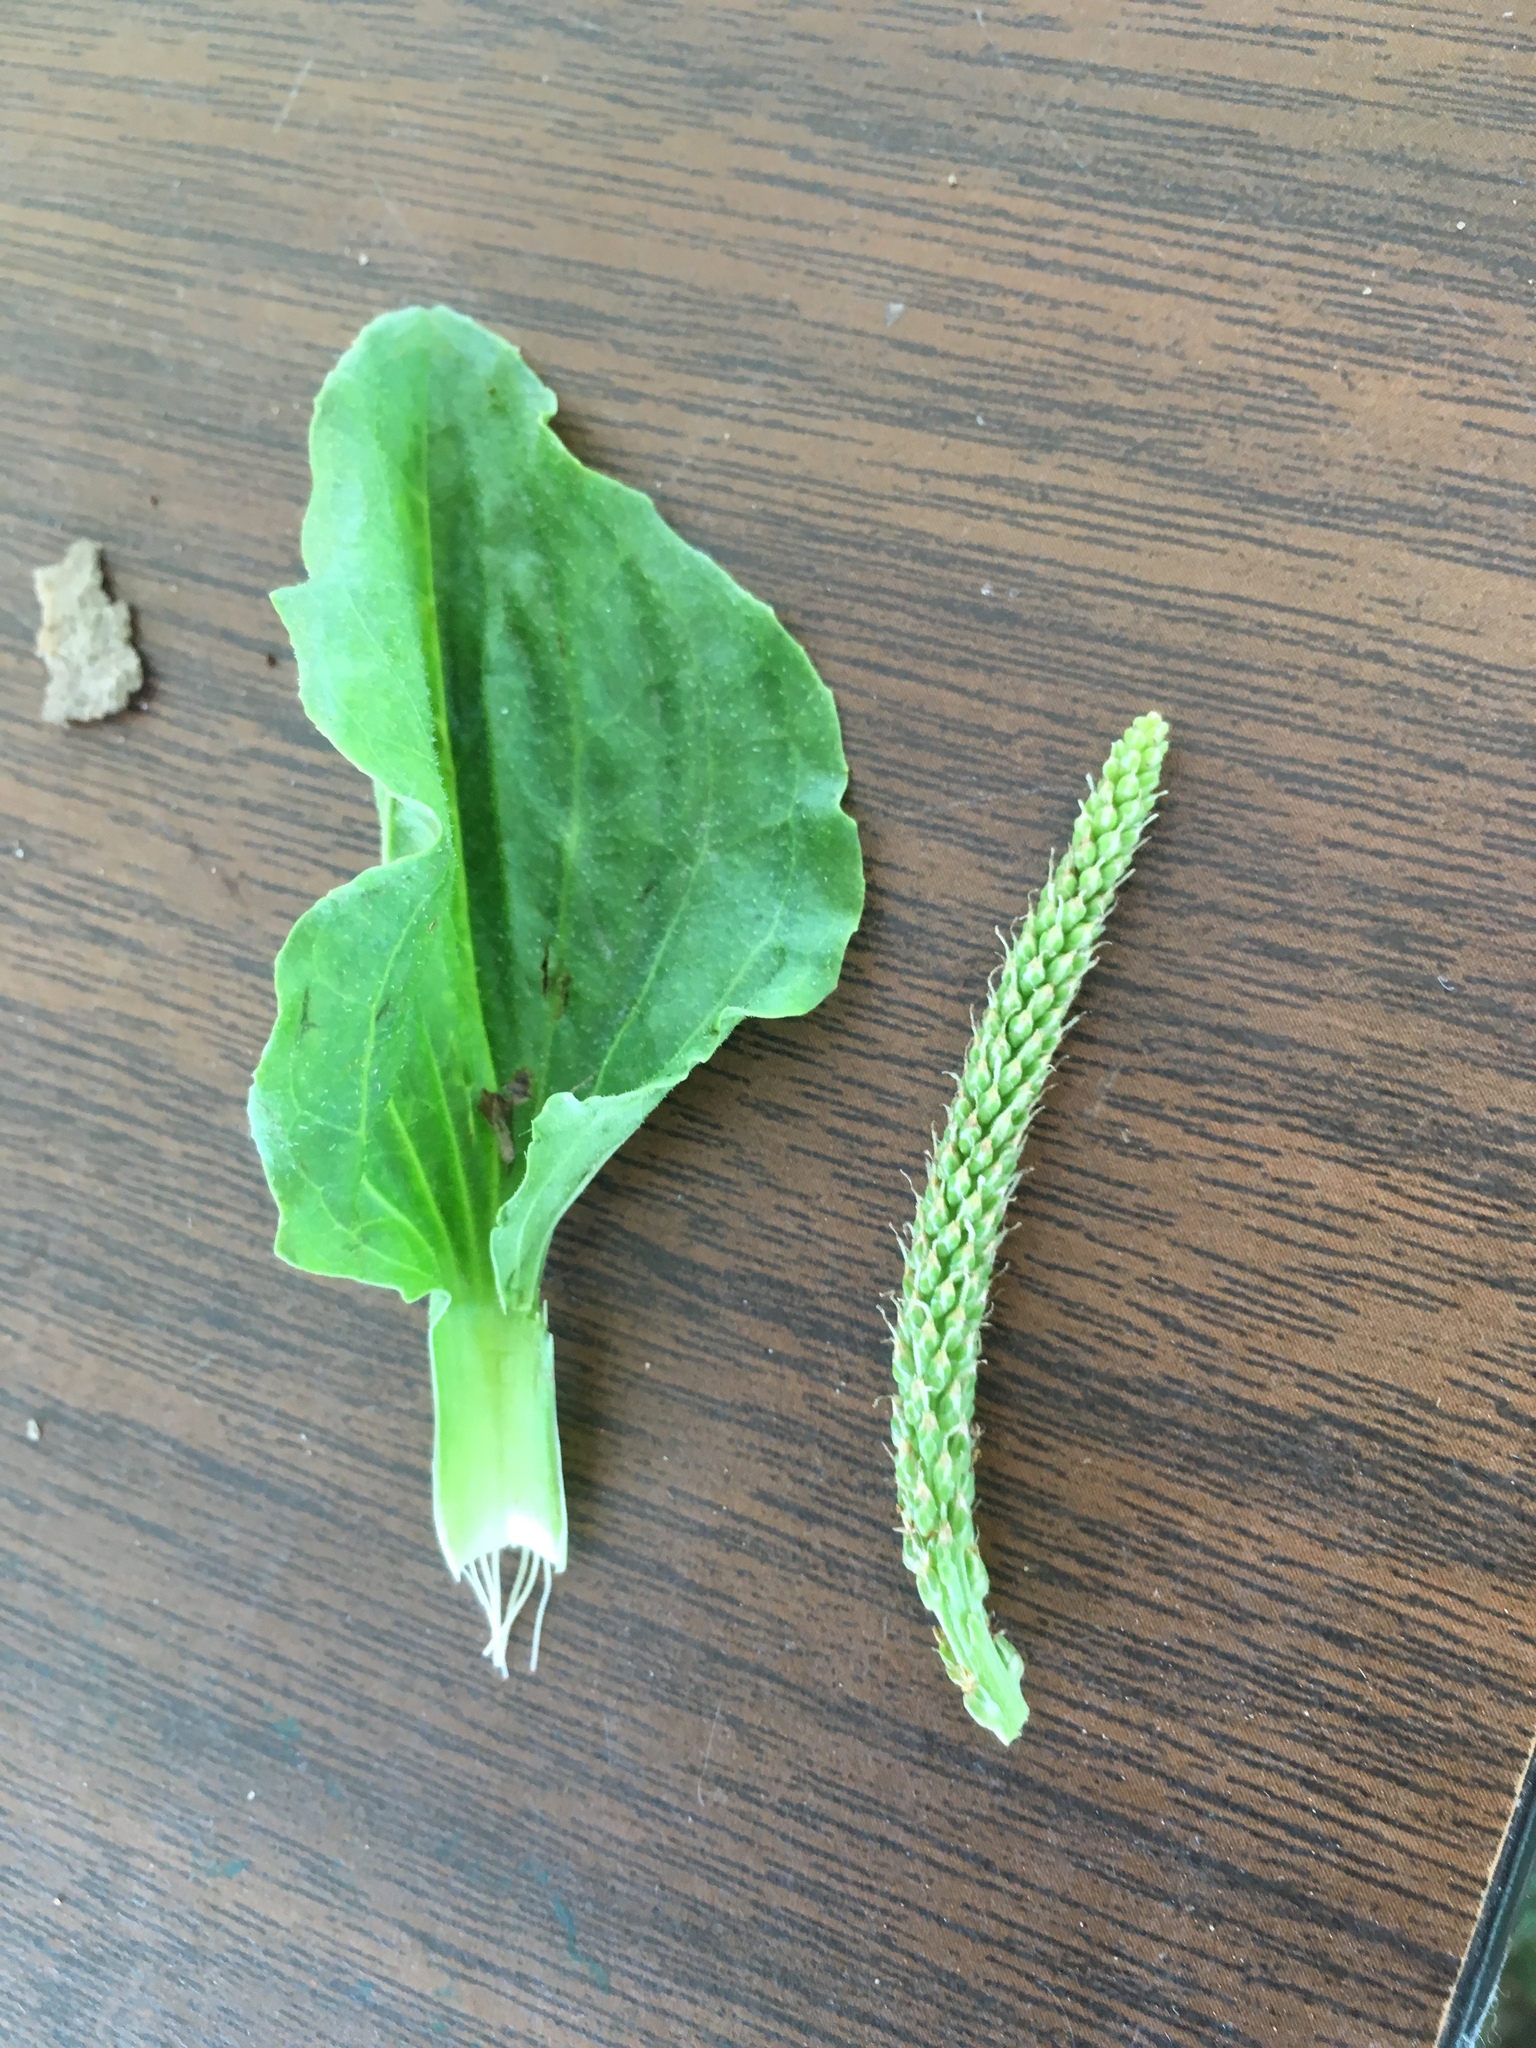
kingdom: Plantae
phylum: Tracheophyta
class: Magnoliopsida
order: Lamiales
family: Plantaginaceae
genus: Plantago
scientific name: Plantago major
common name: Common plantain
